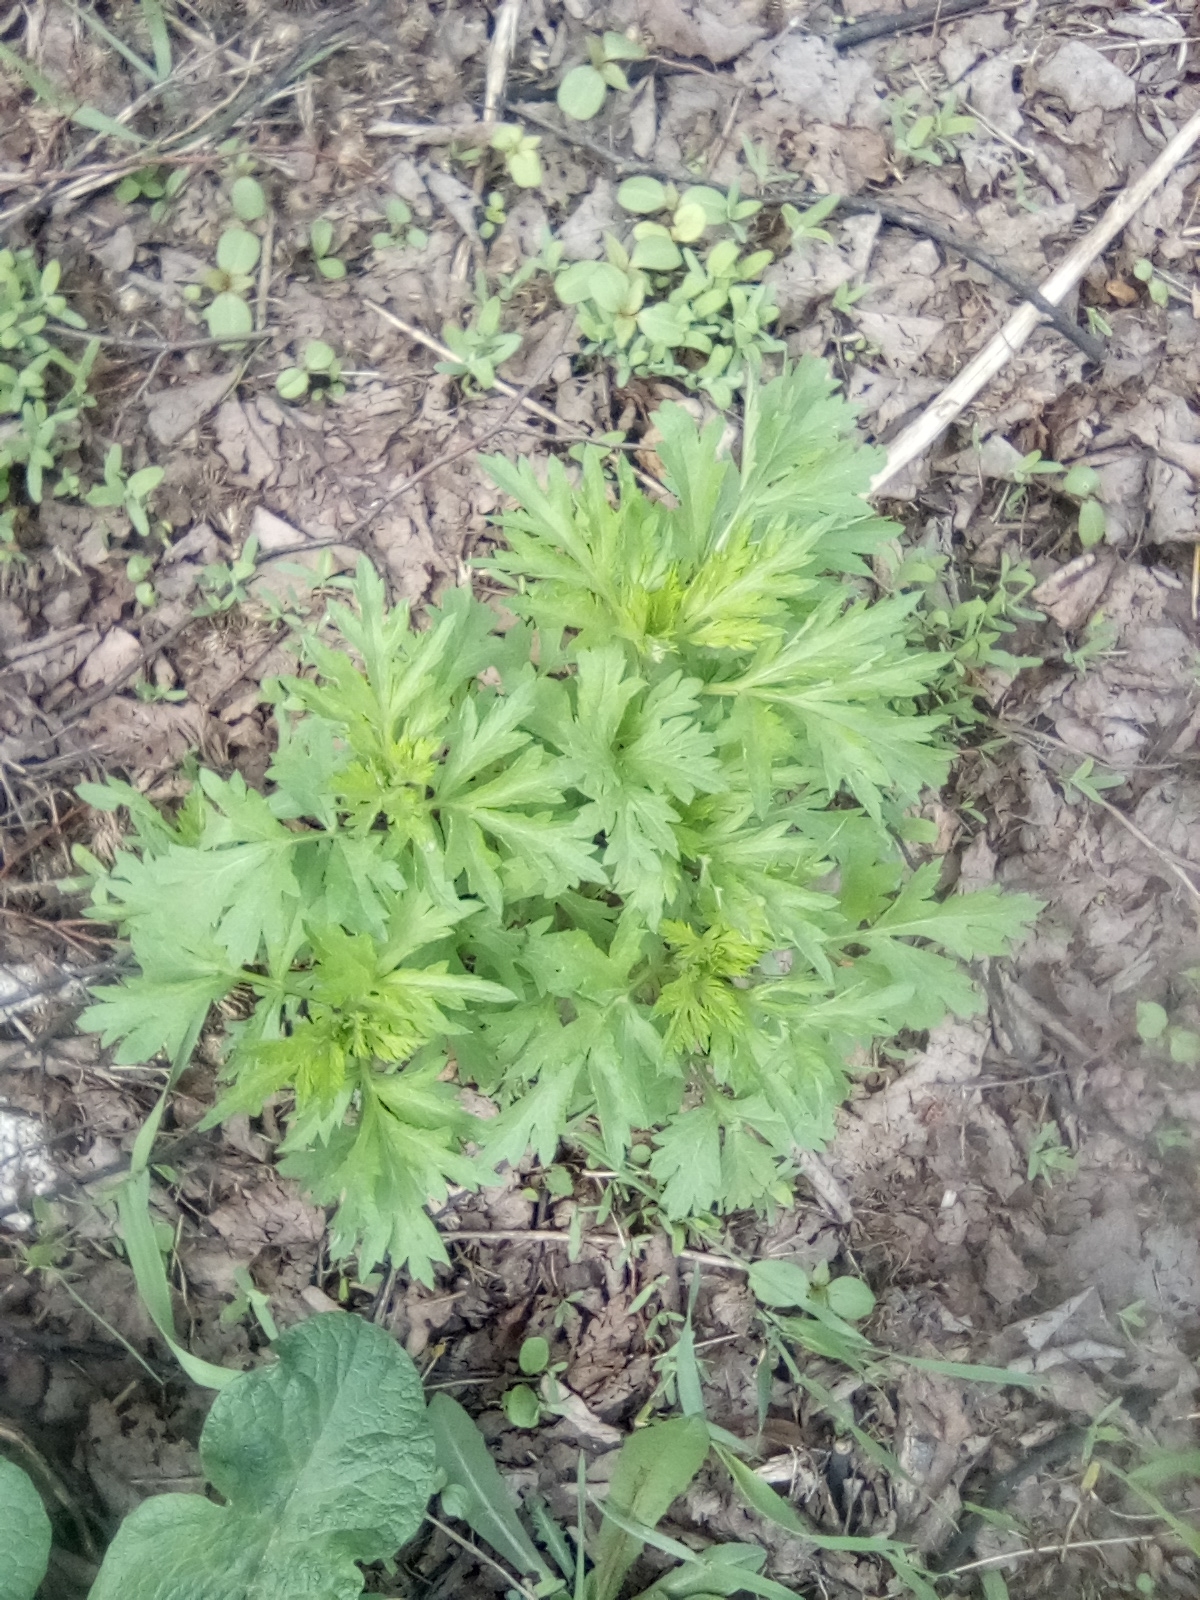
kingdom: Plantae
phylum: Tracheophyta
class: Magnoliopsida
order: Asterales
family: Asteraceae
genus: Artemisia
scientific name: Artemisia vulgaris
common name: Mugwort
